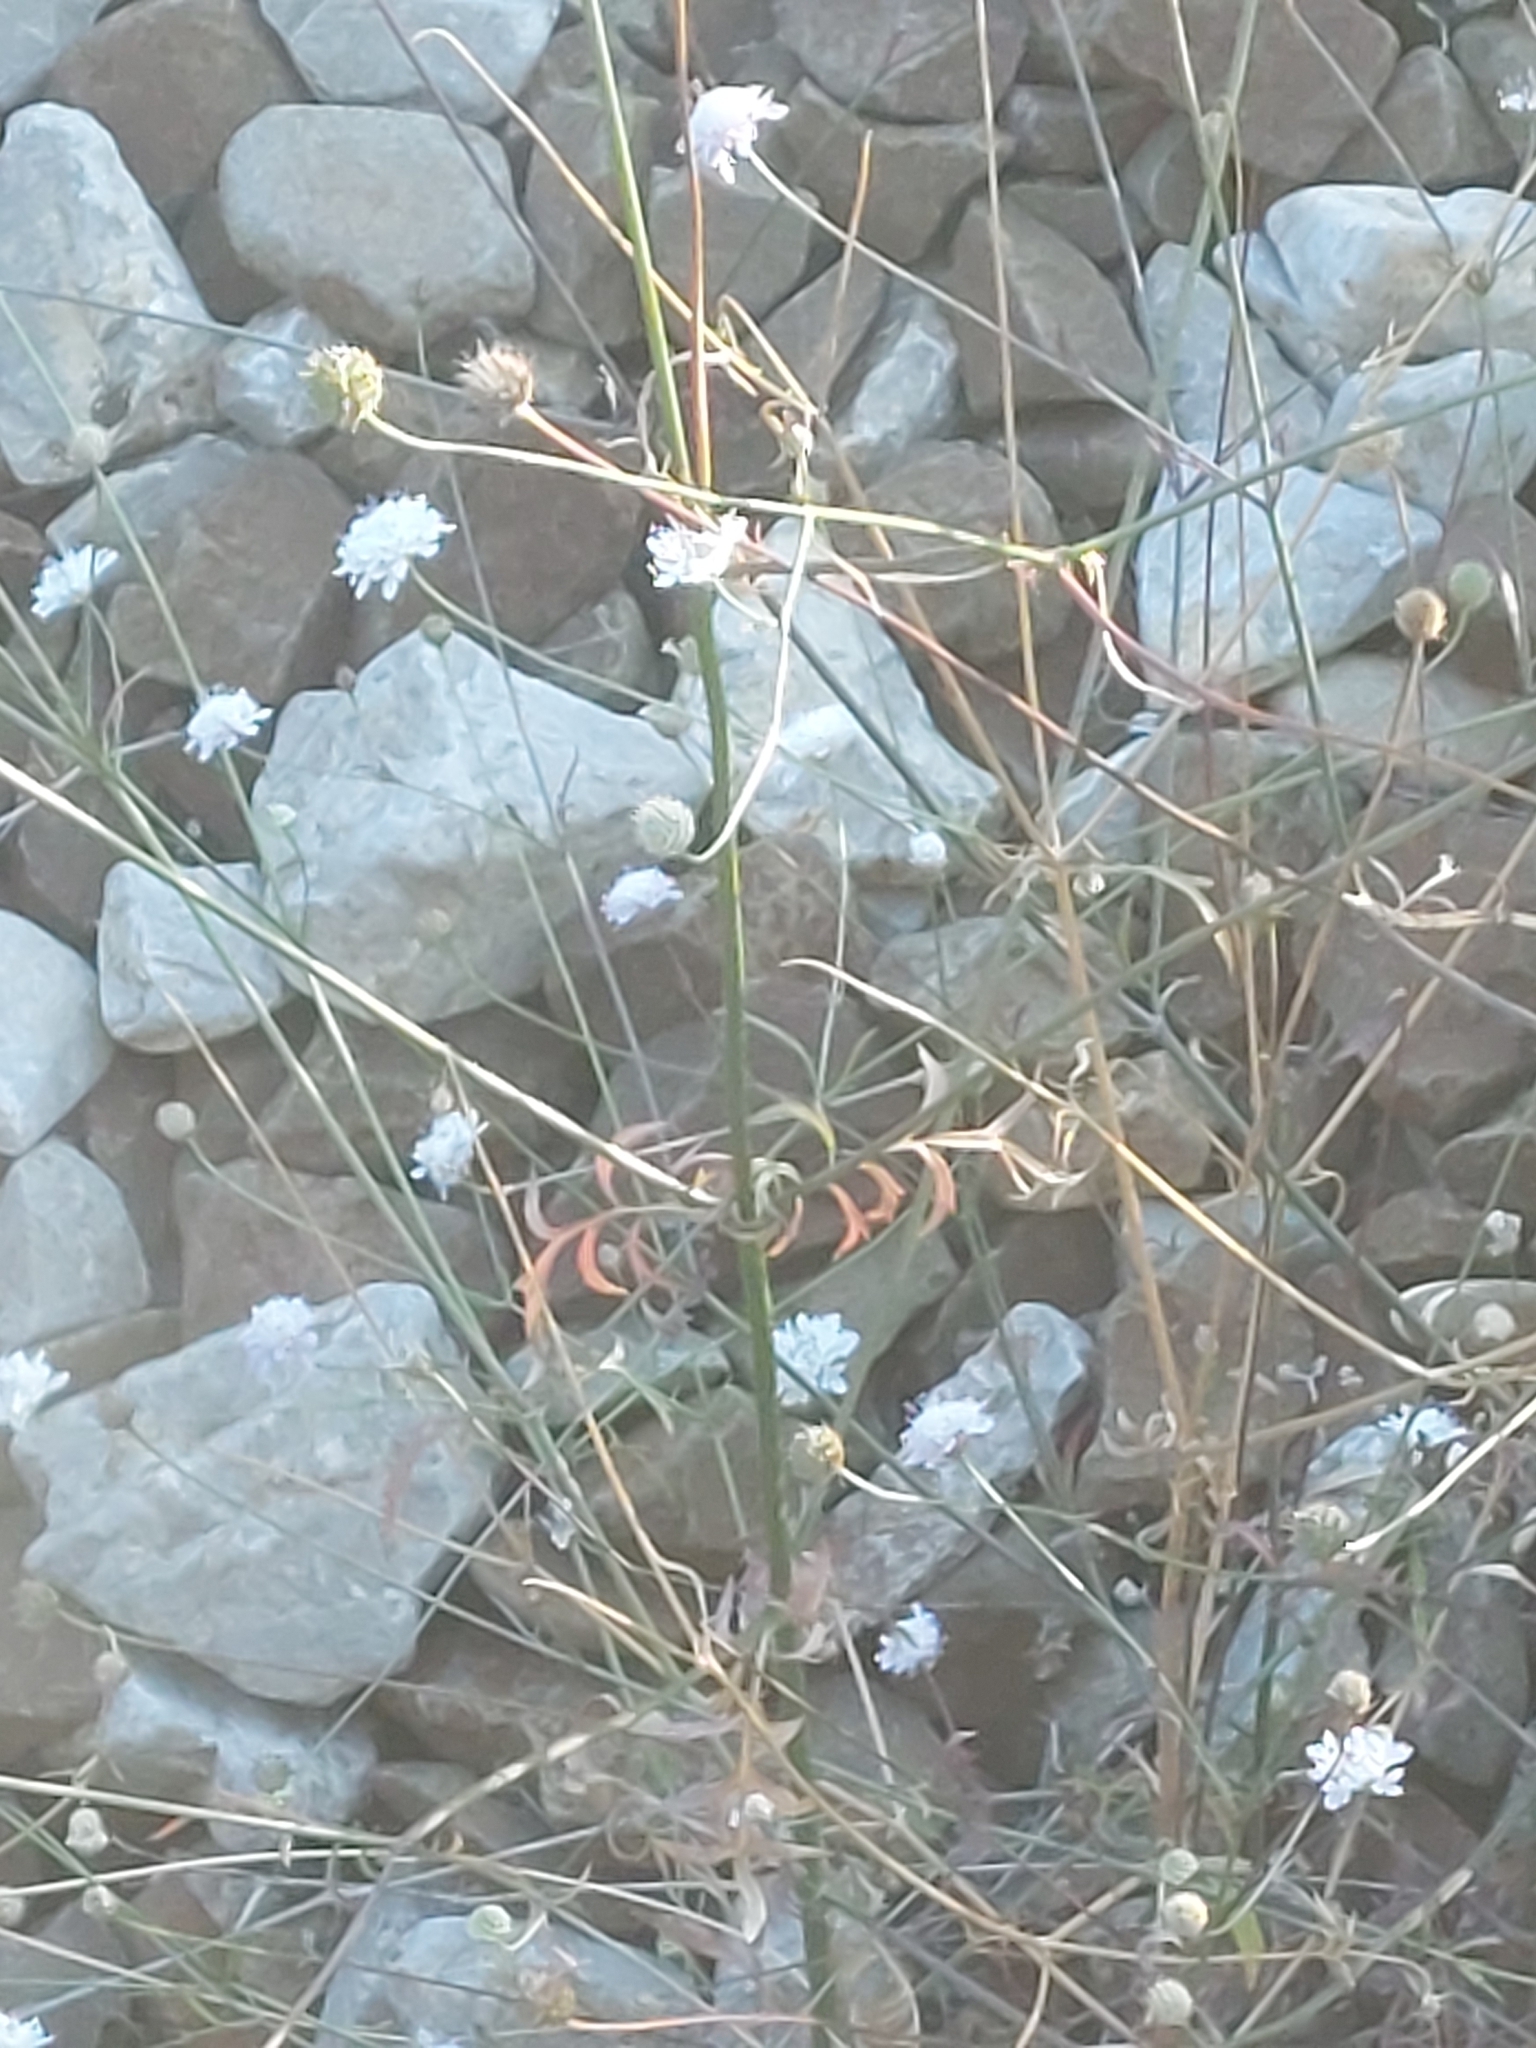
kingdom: Plantae
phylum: Tracheophyta
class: Magnoliopsida
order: Dipsacales
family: Caprifoliaceae
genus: Cephalaria
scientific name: Cephalaria transsylvanica
